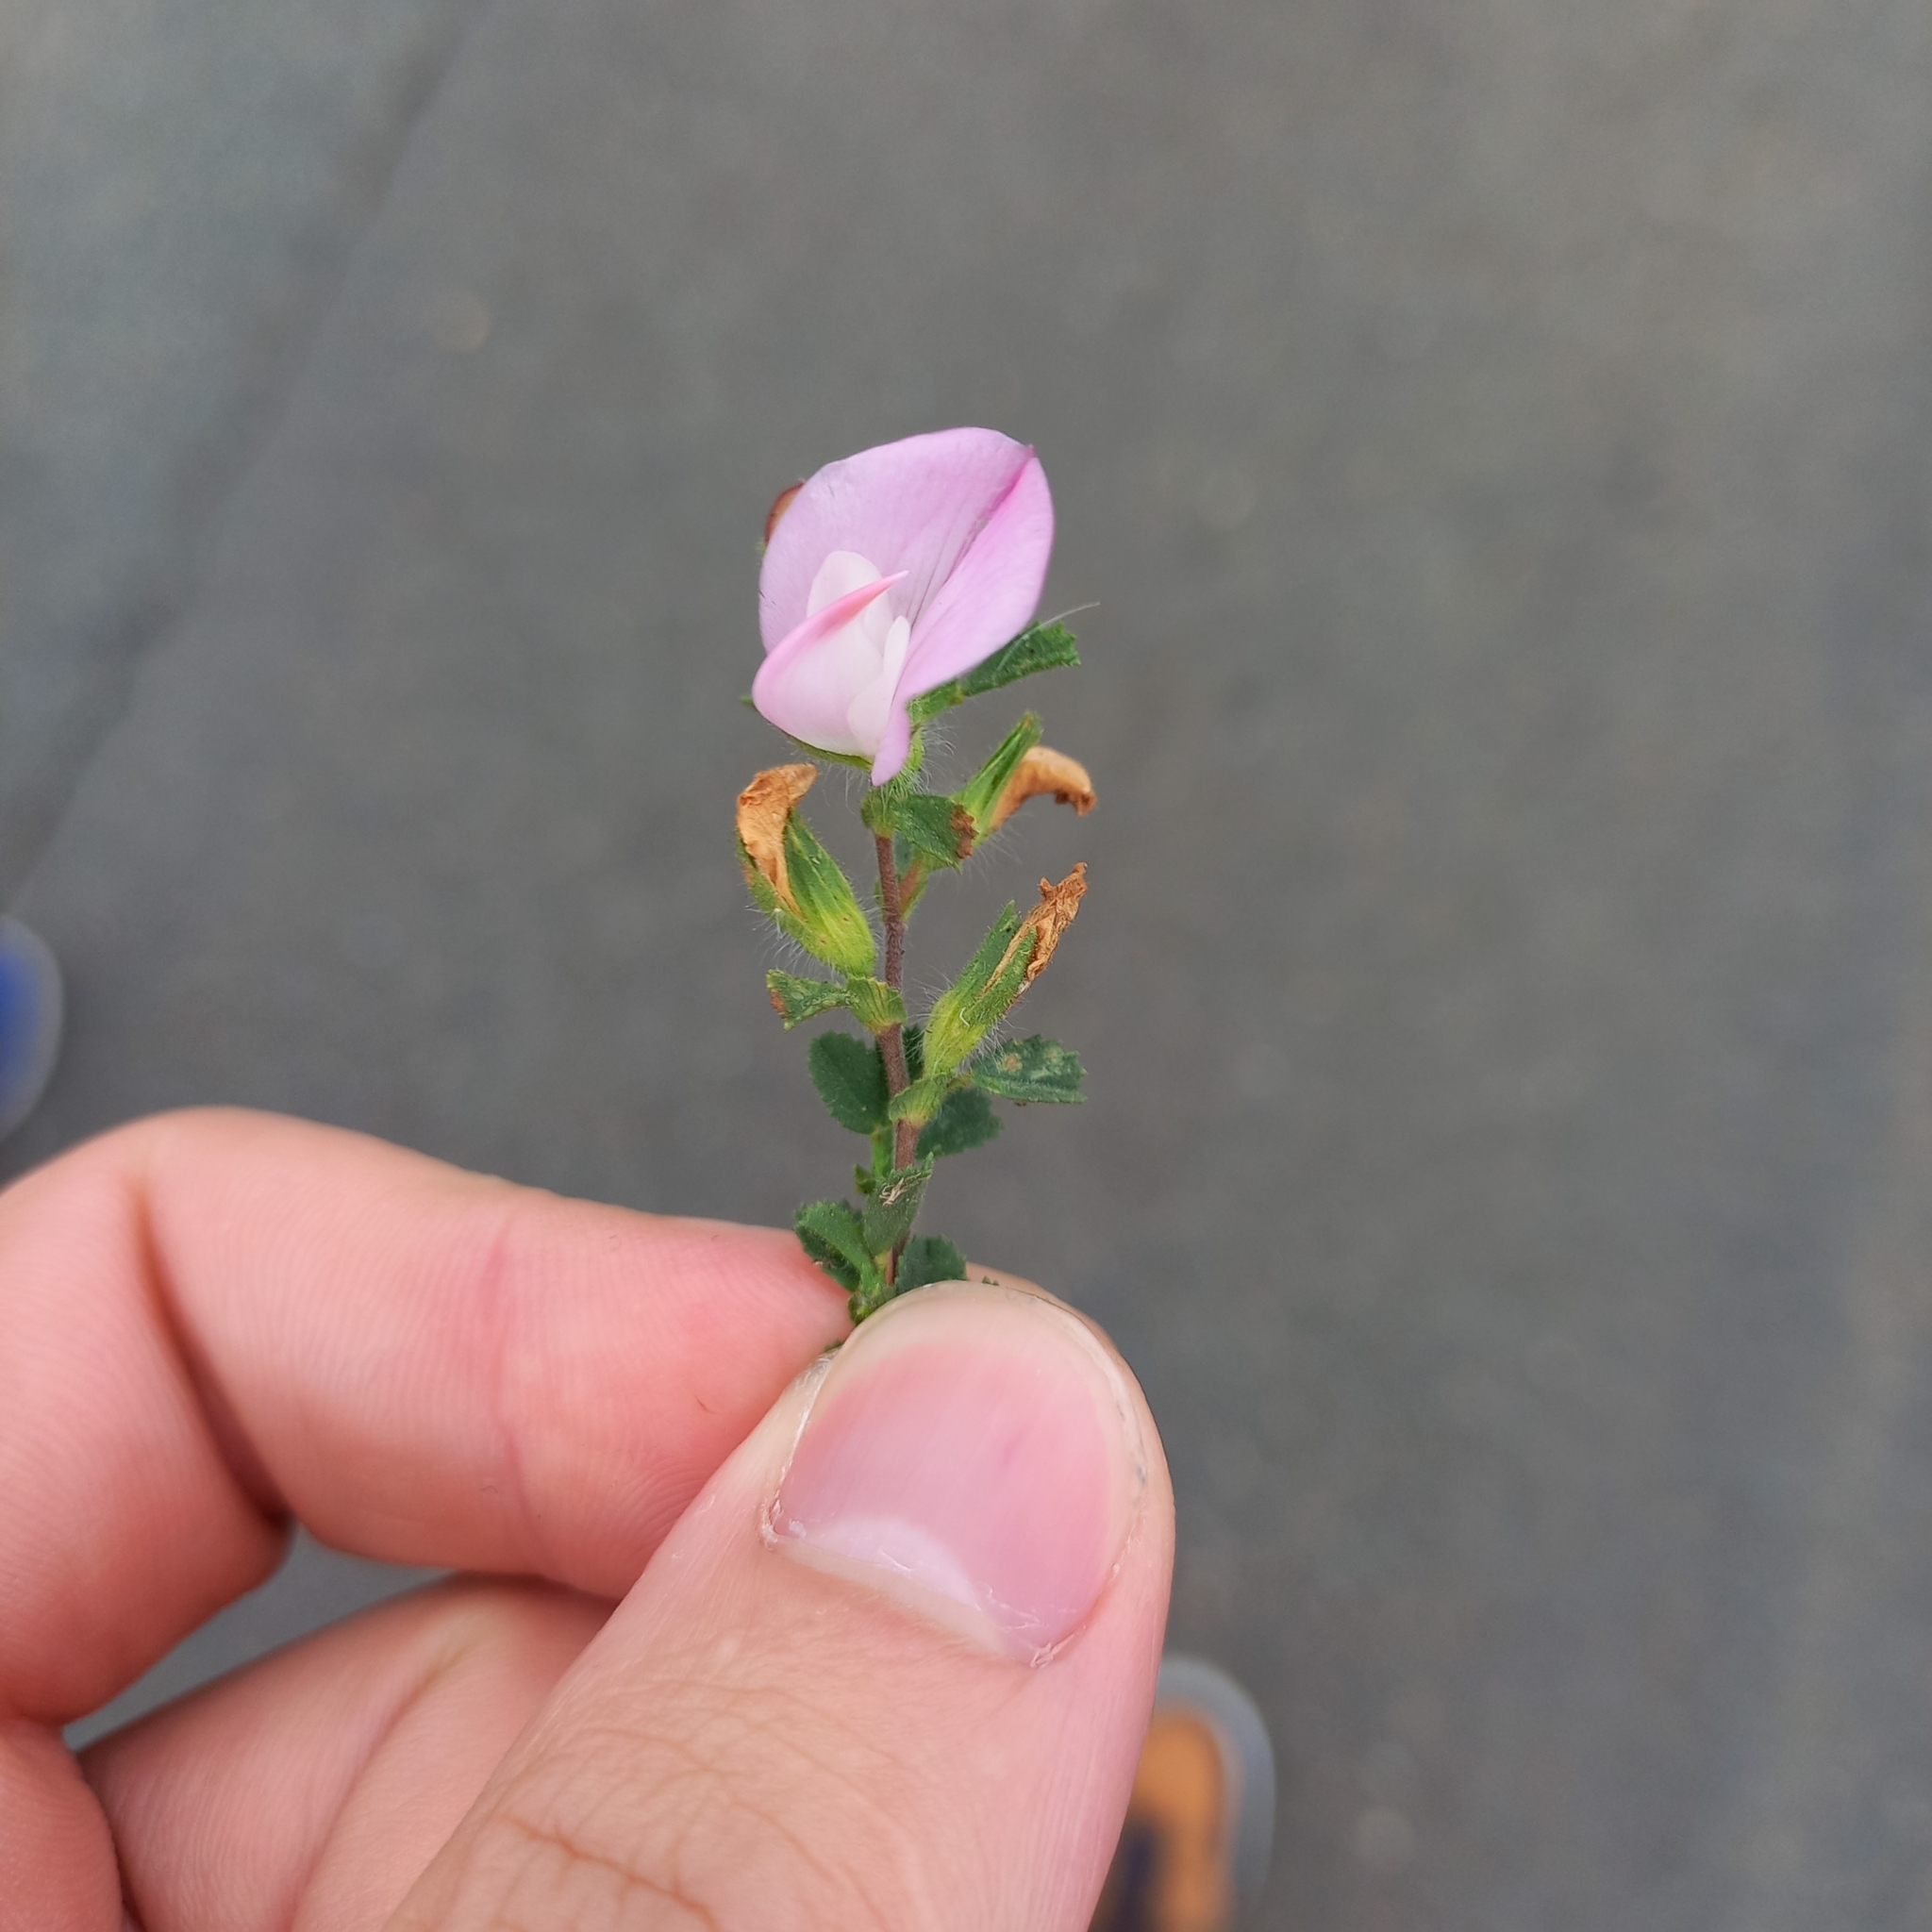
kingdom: Plantae
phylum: Tracheophyta
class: Magnoliopsida
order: Fabales
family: Fabaceae
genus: Ononis
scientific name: Ononis spinosa
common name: Spiny restharrow
